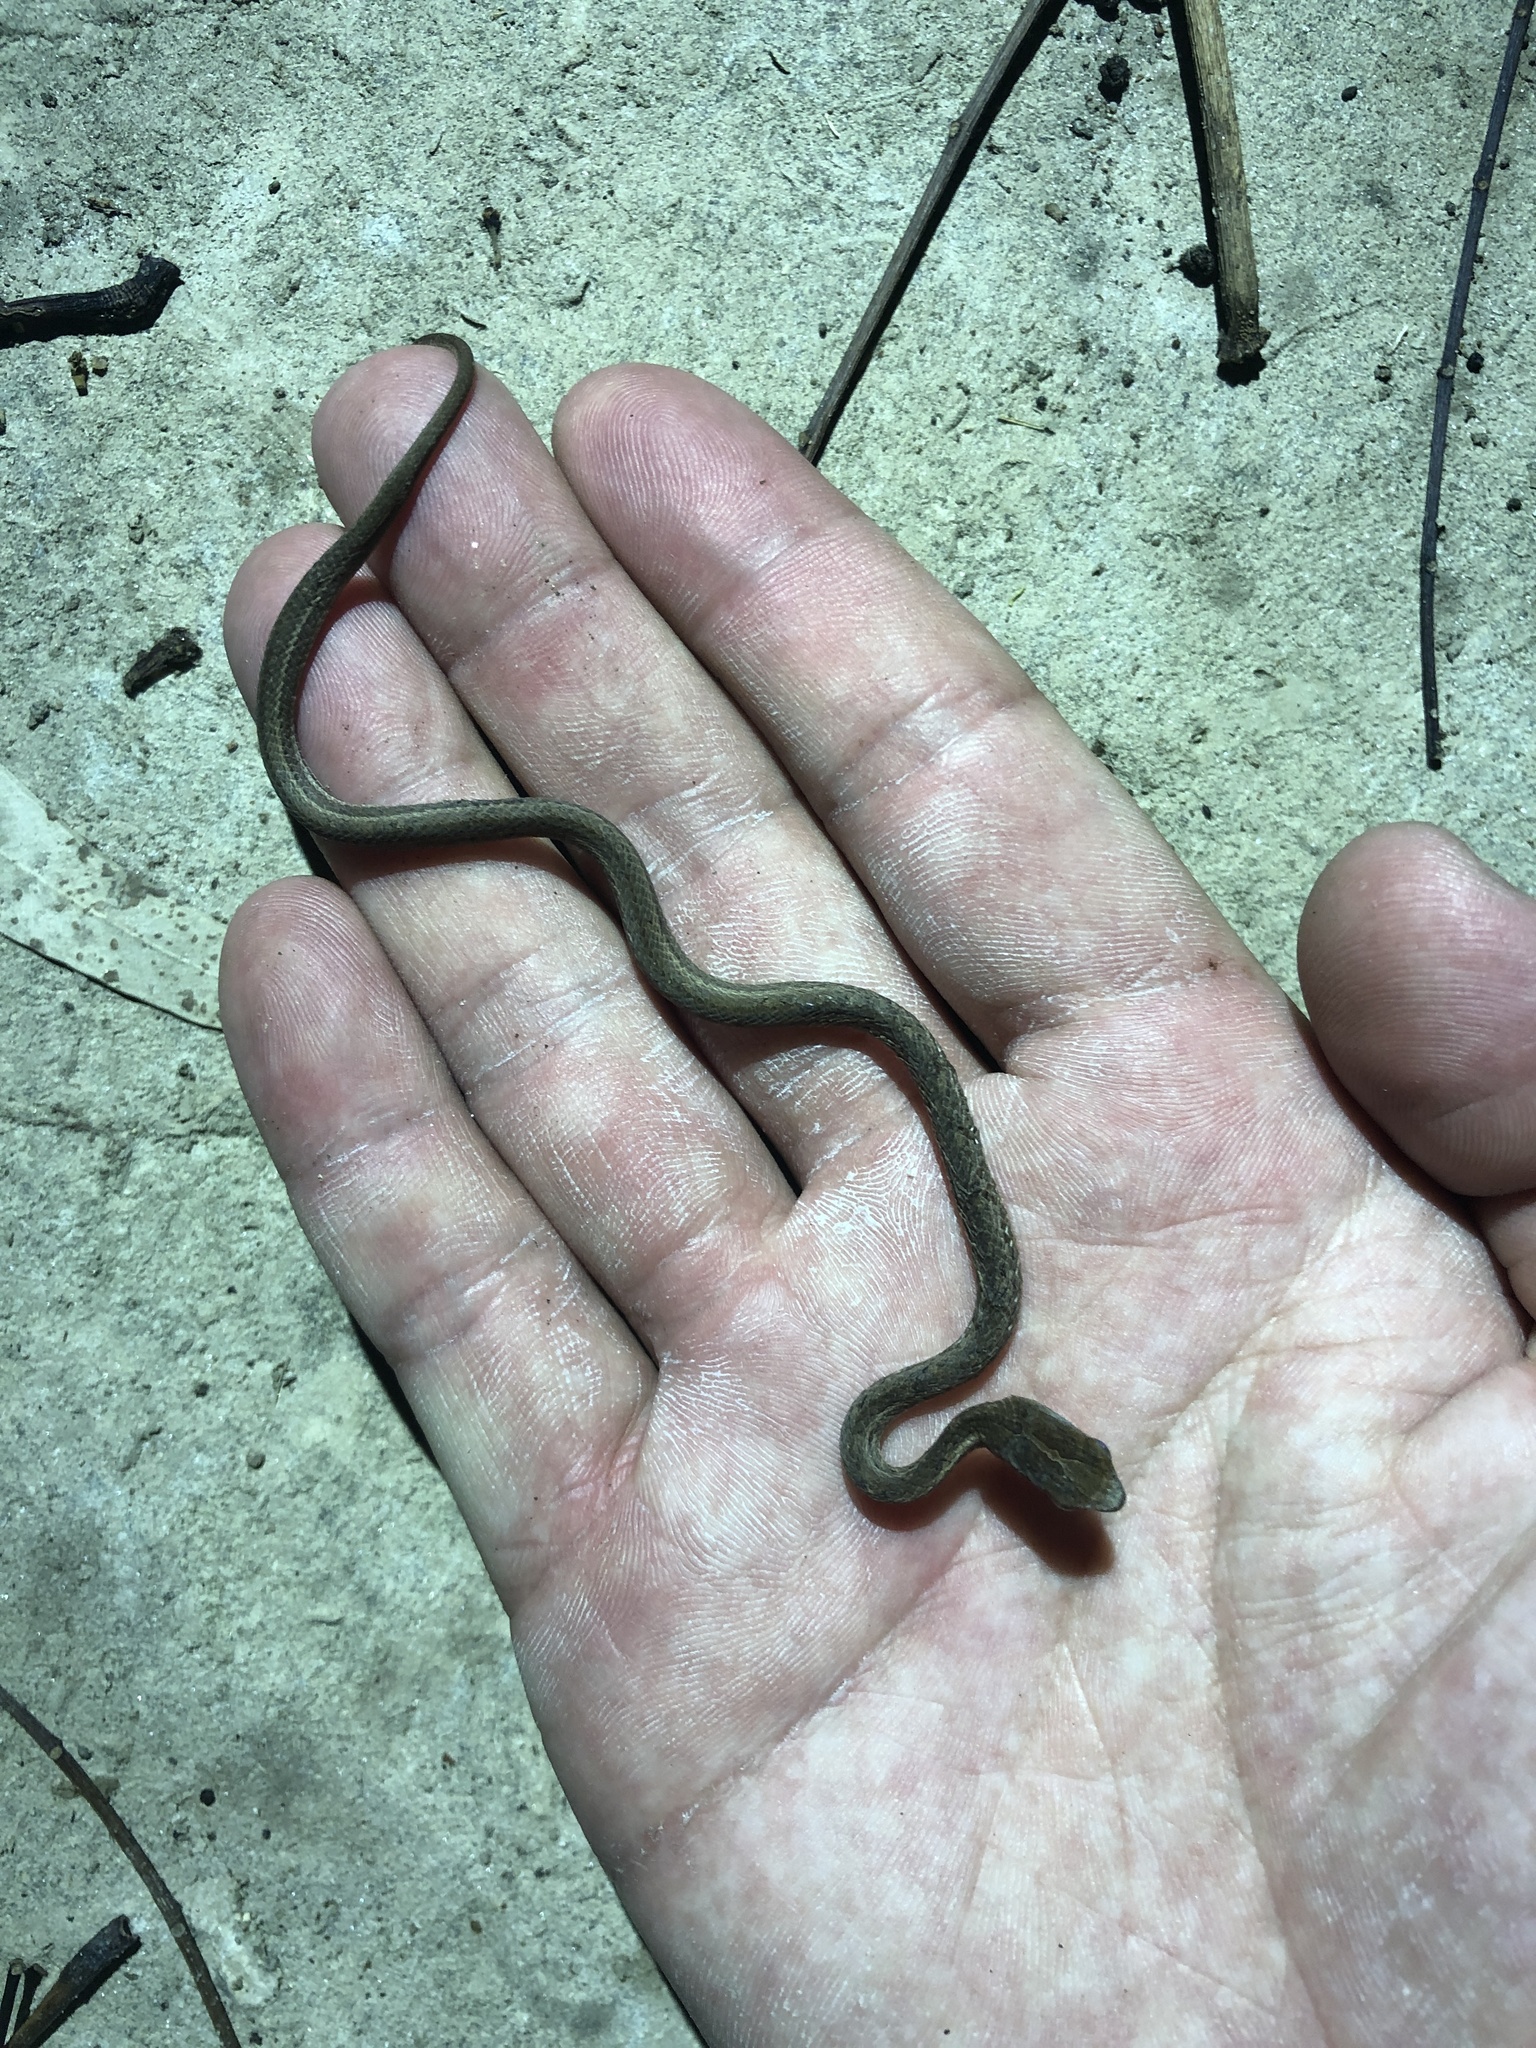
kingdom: Animalia
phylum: Chordata
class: Squamata
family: Pseudaspididae
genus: Psammodynastes
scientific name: Psammodynastes pulverulentus
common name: Common mock viper
